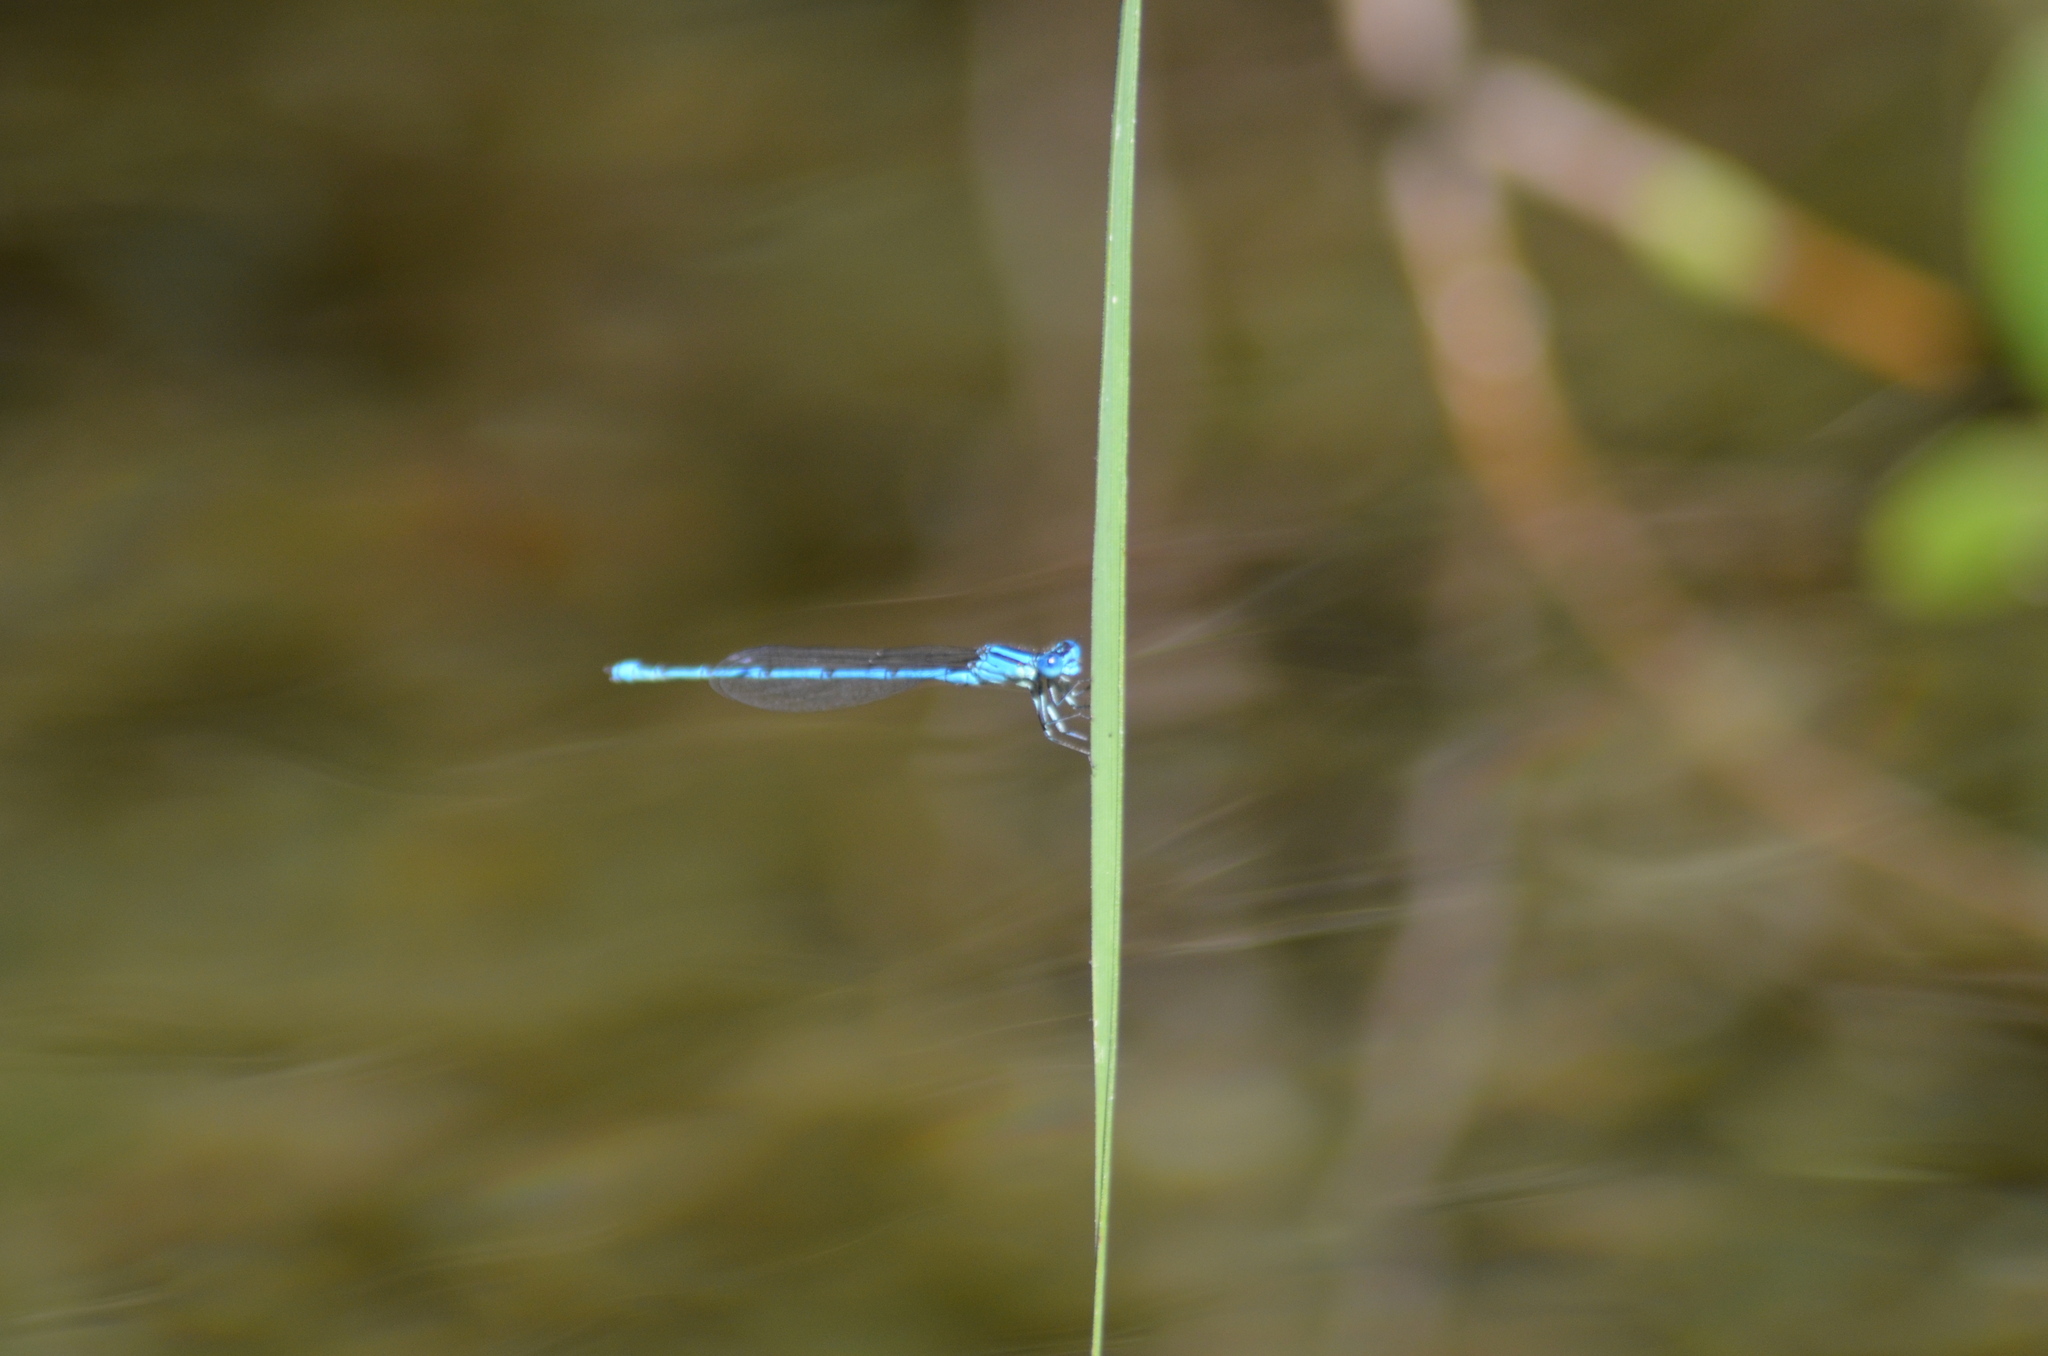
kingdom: Animalia
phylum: Arthropoda
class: Insecta
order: Odonata
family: Coenagrionidae
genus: Erythromma
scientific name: Erythromma lindenii
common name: Blue-eye
